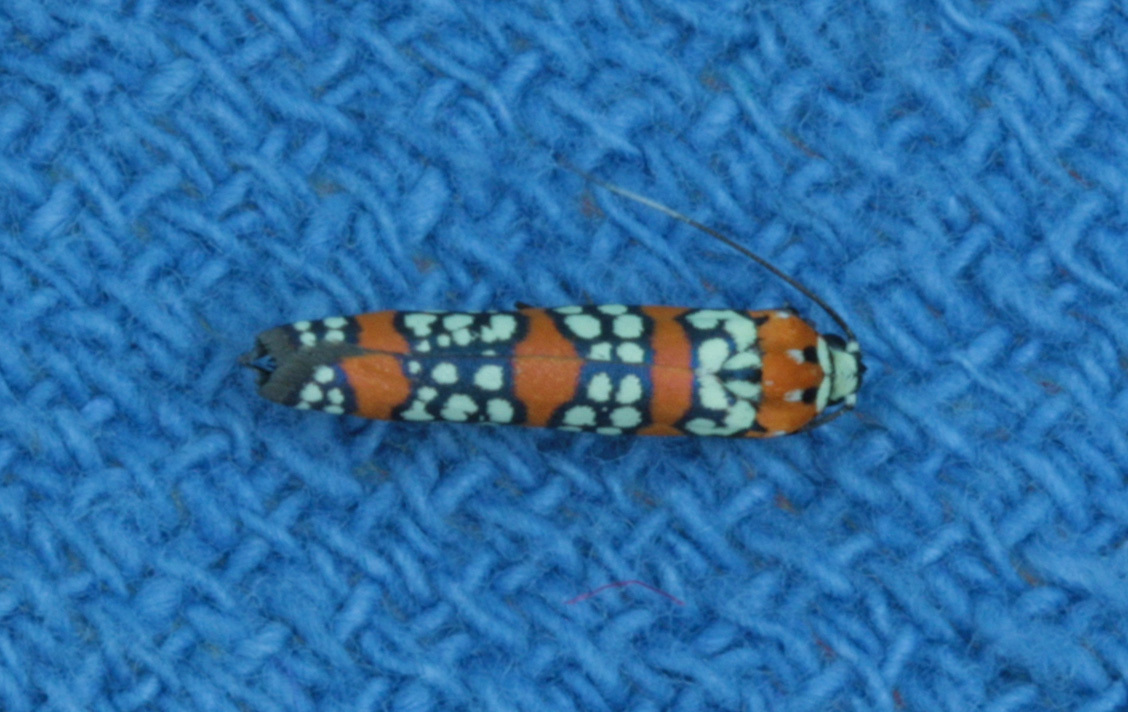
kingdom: Animalia
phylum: Arthropoda
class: Insecta
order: Lepidoptera
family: Attevidae
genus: Atteva
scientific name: Atteva punctella
